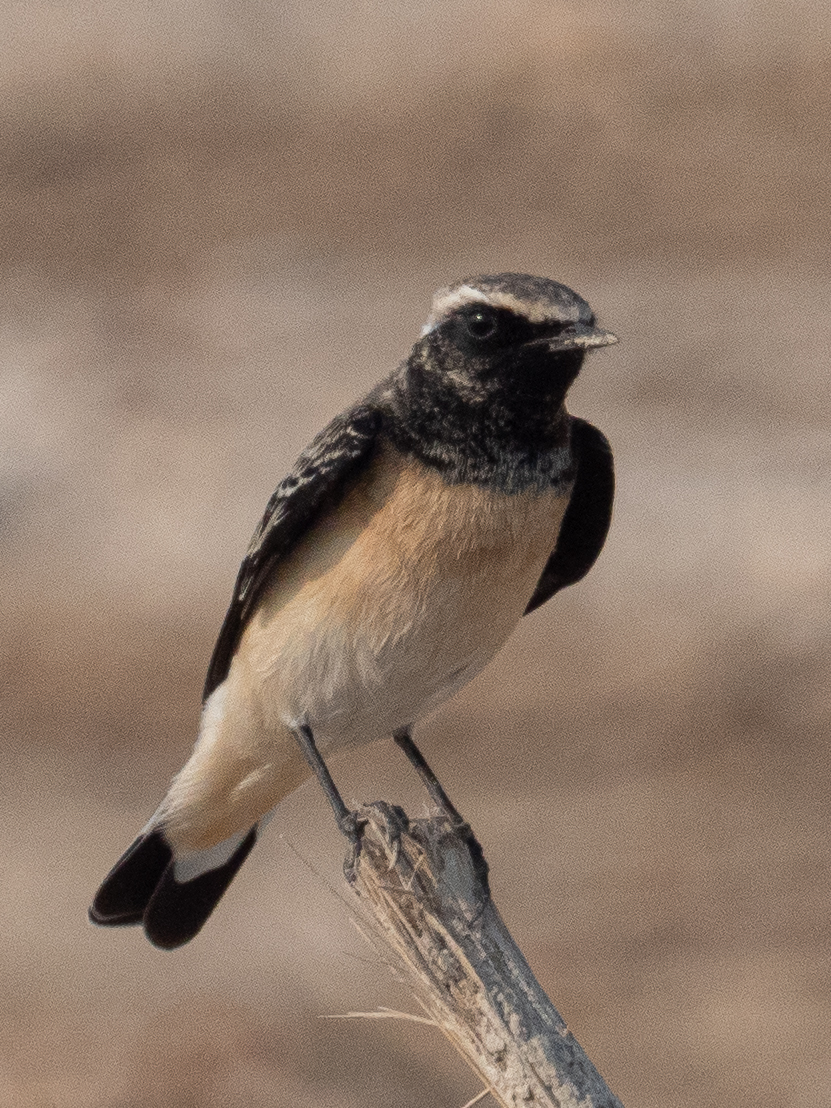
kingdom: Animalia
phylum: Chordata
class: Aves
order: Passeriformes
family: Muscicapidae
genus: Oenanthe
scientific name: Oenanthe deserti
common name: Desert wheatear
